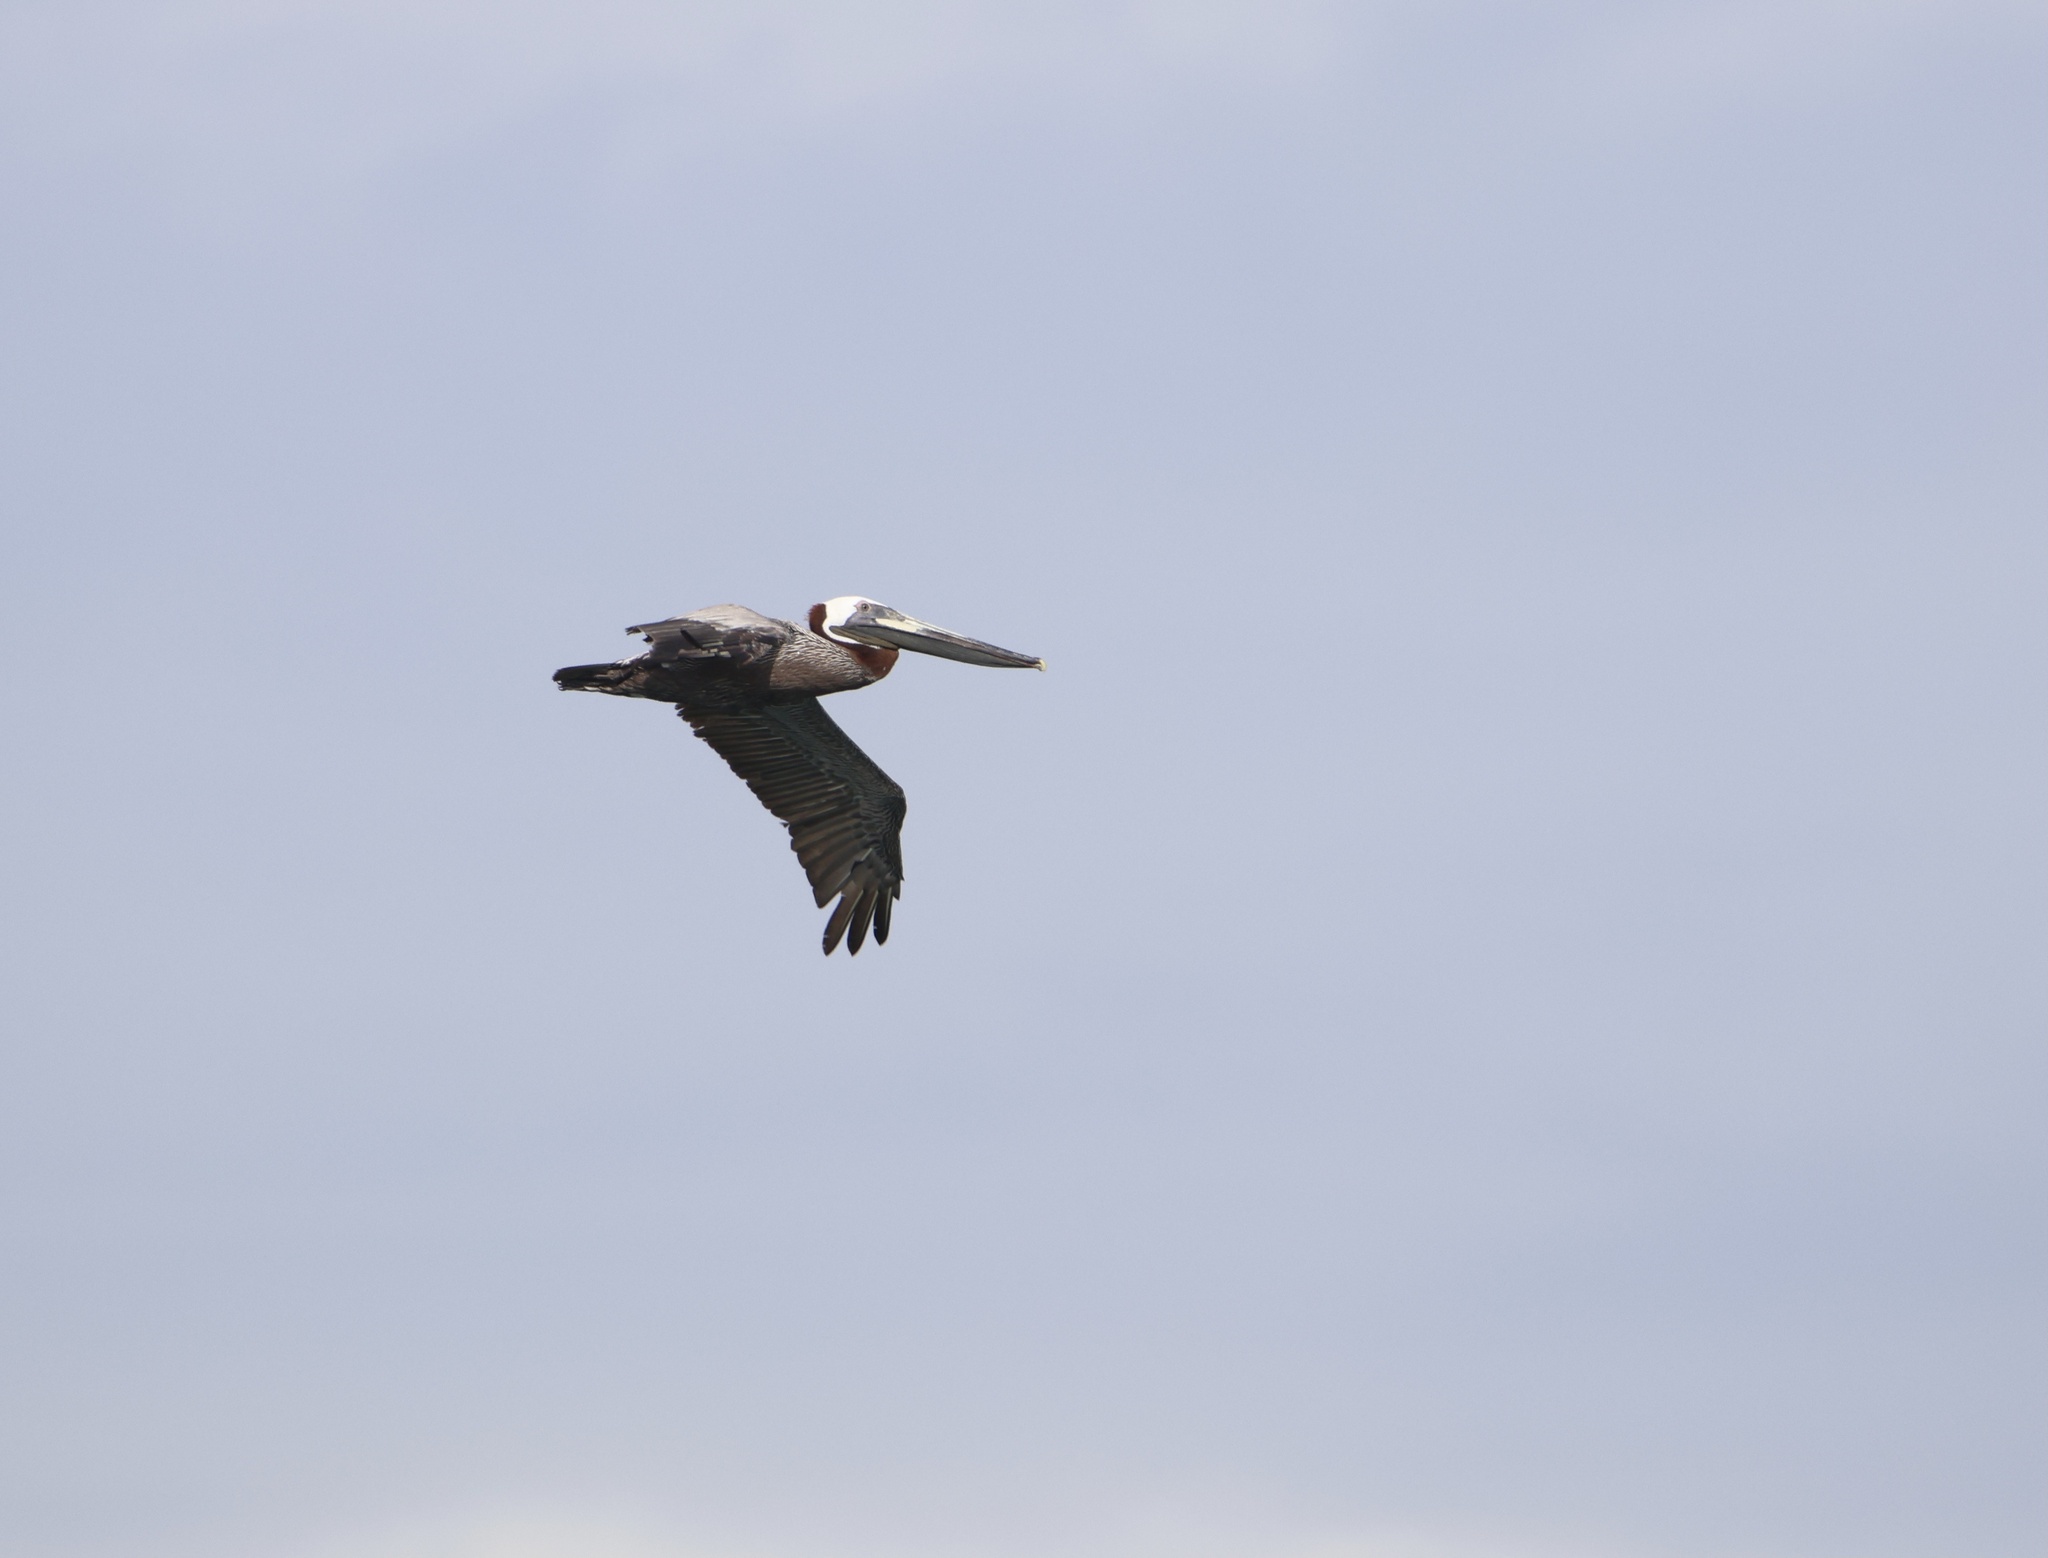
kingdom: Animalia
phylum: Chordata
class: Aves
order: Pelecaniformes
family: Pelecanidae
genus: Pelecanus
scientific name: Pelecanus occidentalis
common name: Brown pelican
